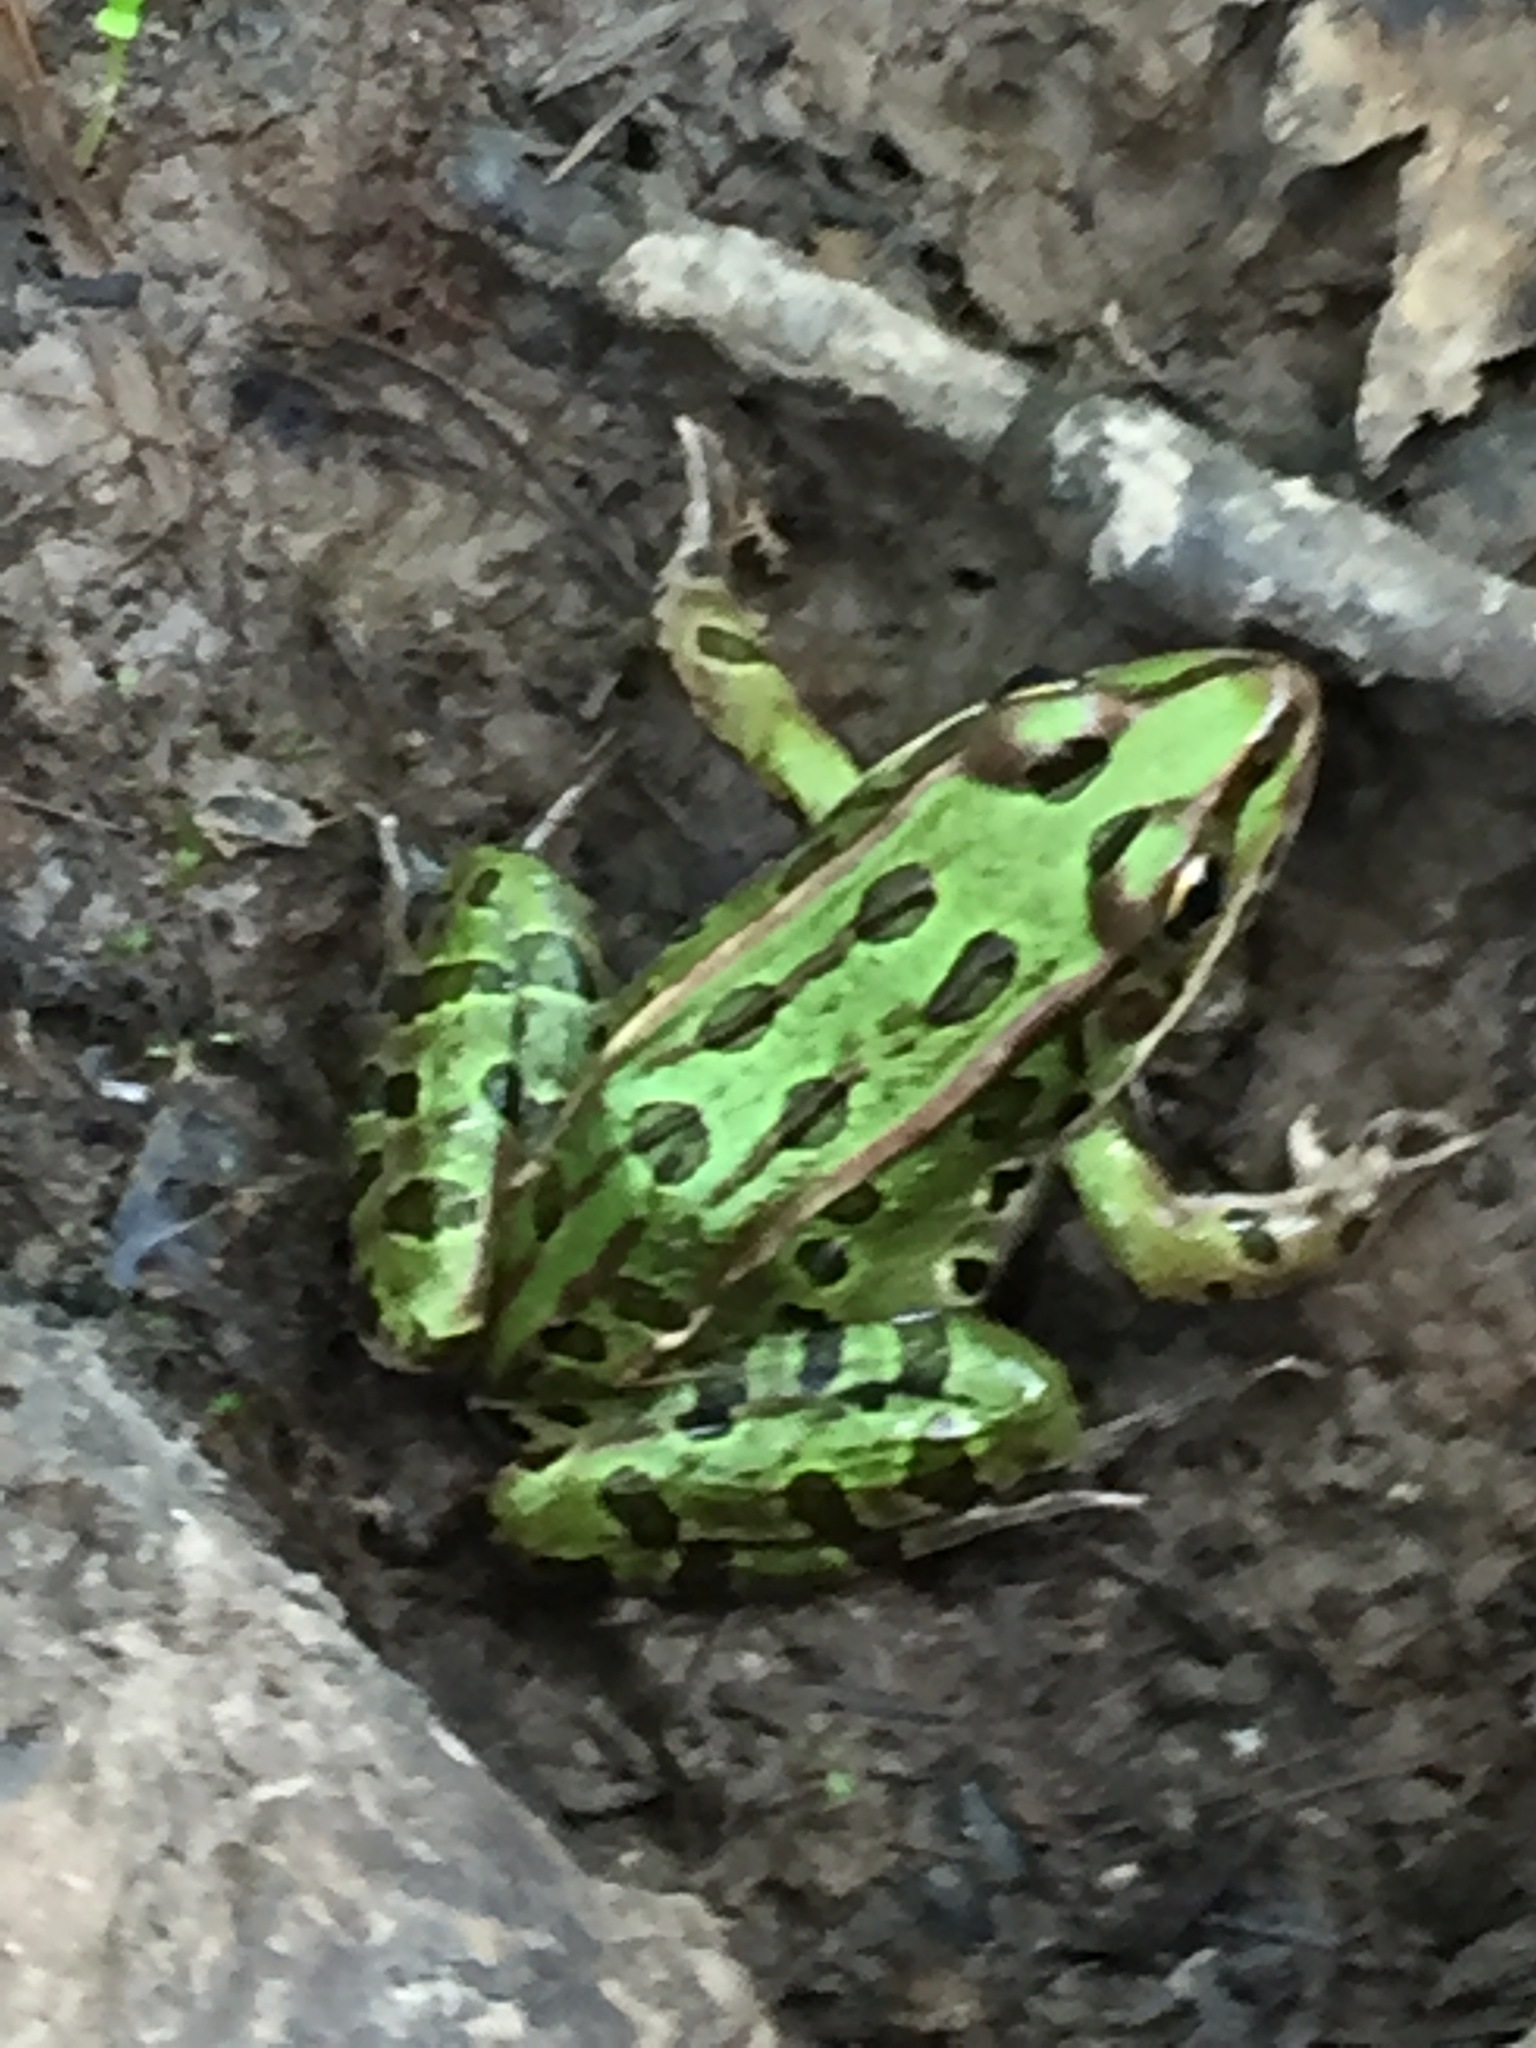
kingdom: Animalia
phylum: Chordata
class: Amphibia
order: Anura
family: Ranidae
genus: Lithobates
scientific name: Lithobates pipiens
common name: Northern leopard frog
